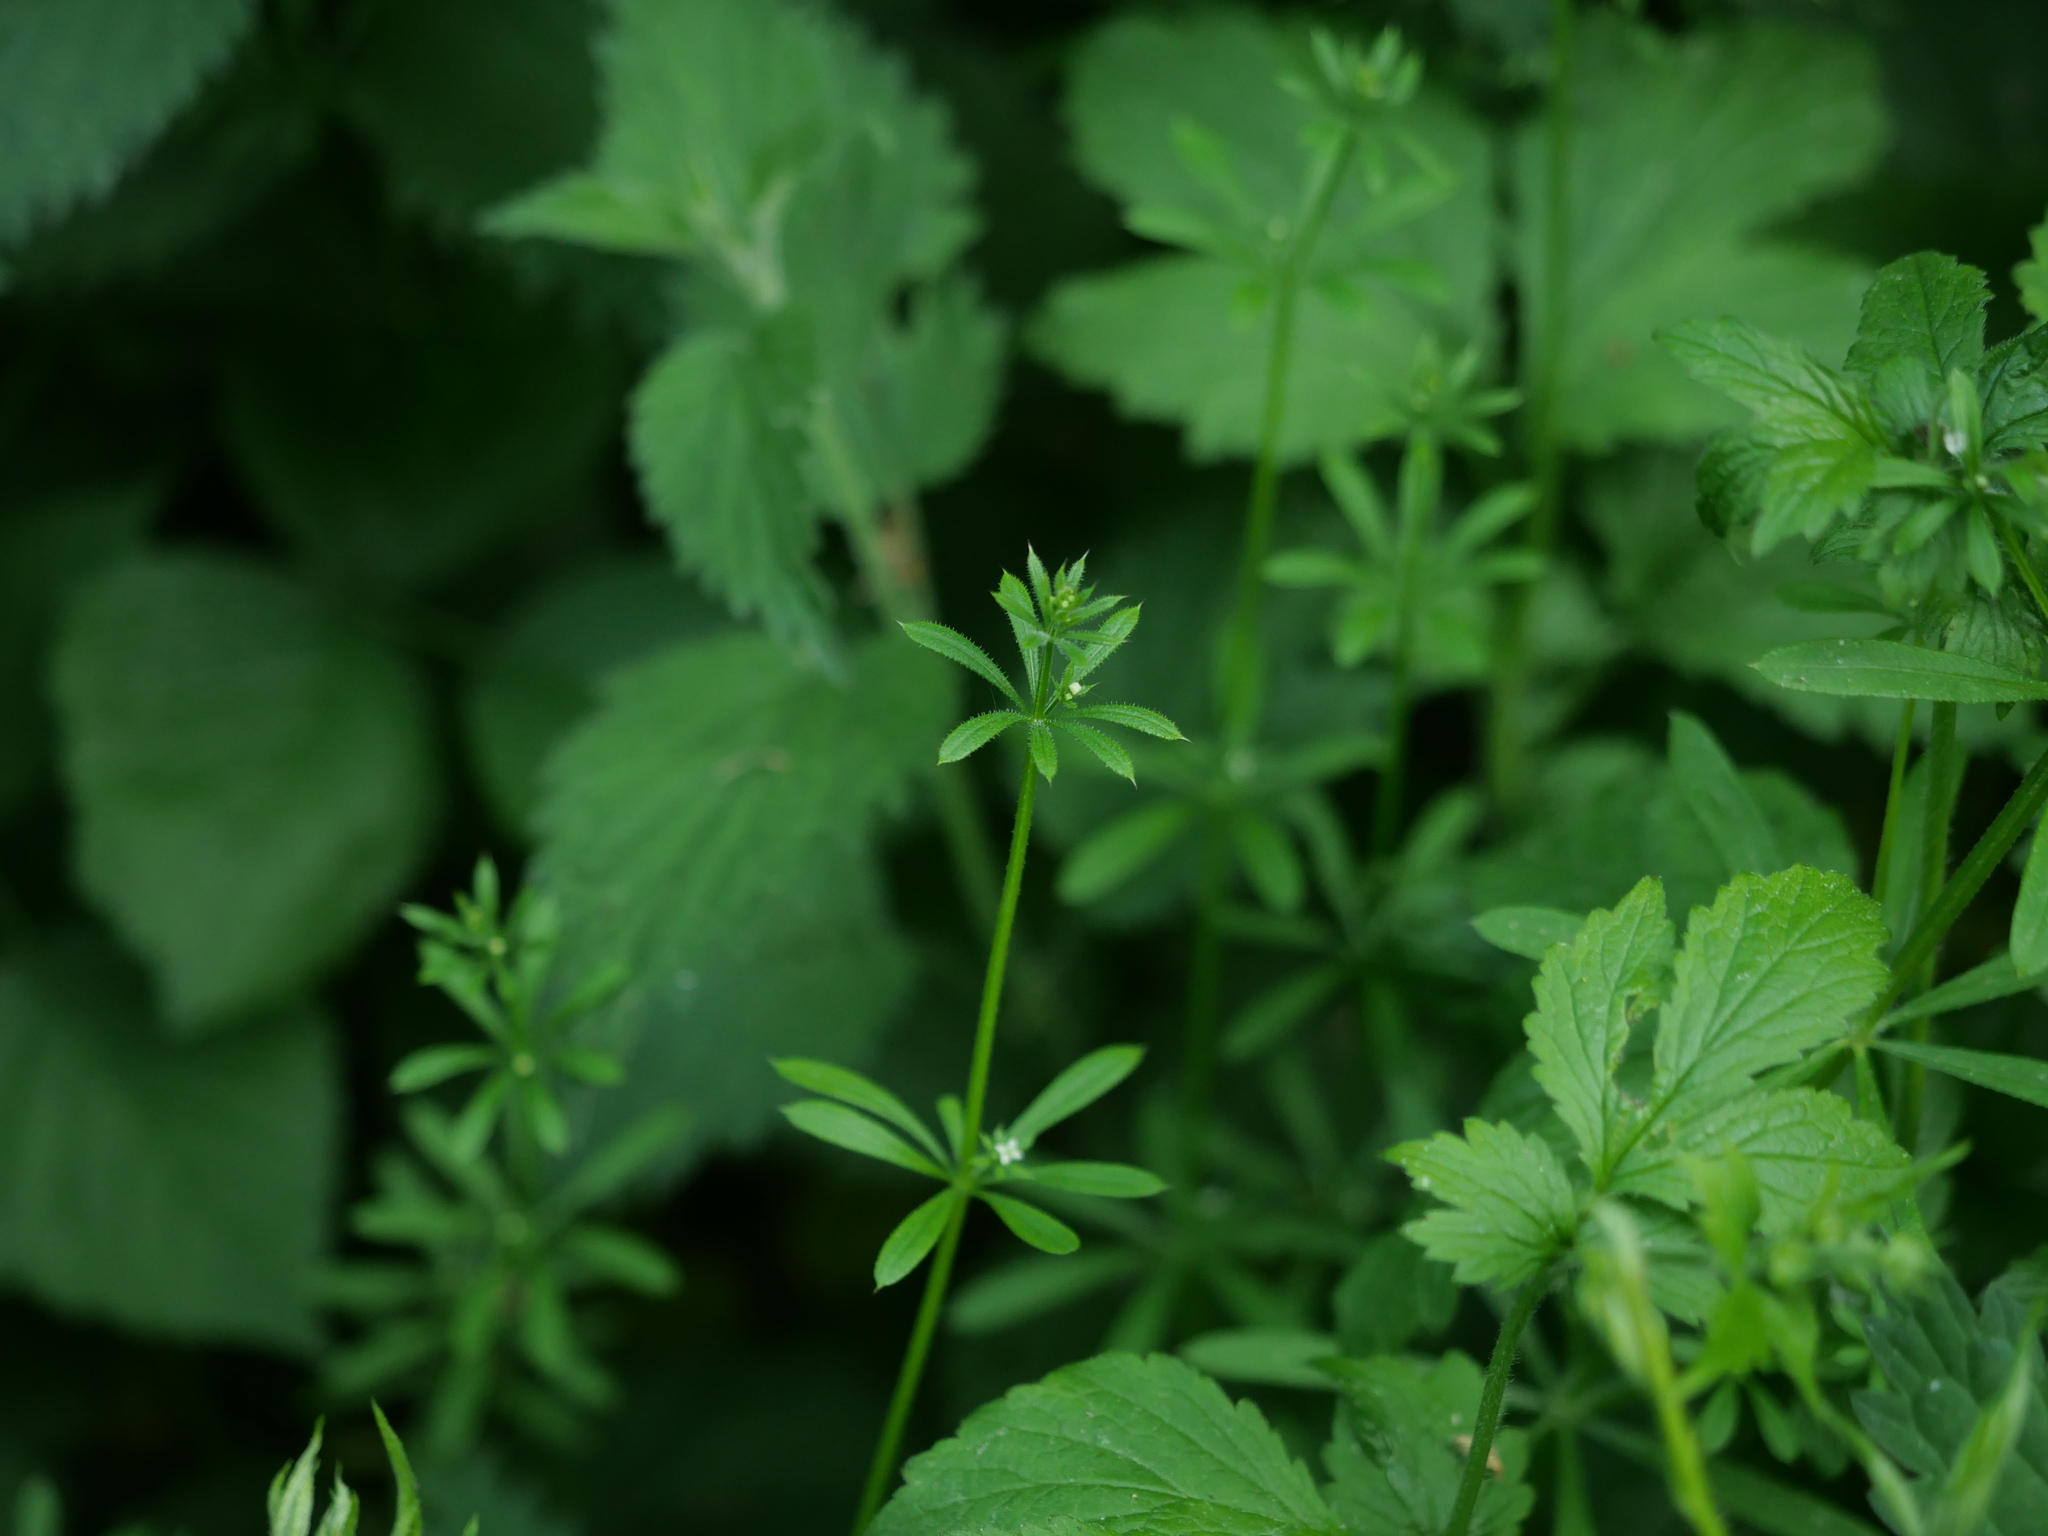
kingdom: Plantae
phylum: Tracheophyta
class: Magnoliopsida
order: Gentianales
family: Rubiaceae
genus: Galium
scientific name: Galium aparine
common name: Cleavers
